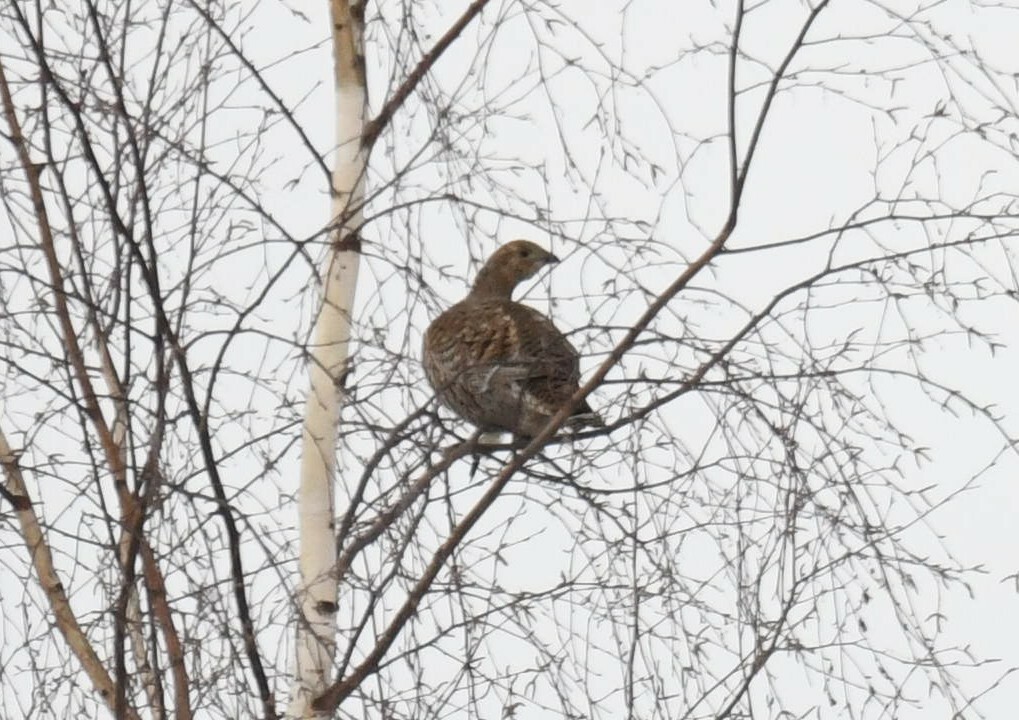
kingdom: Animalia
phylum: Chordata
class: Aves
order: Galliformes
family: Phasianidae
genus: Lyrurus
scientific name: Lyrurus tetrix
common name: Black grouse
